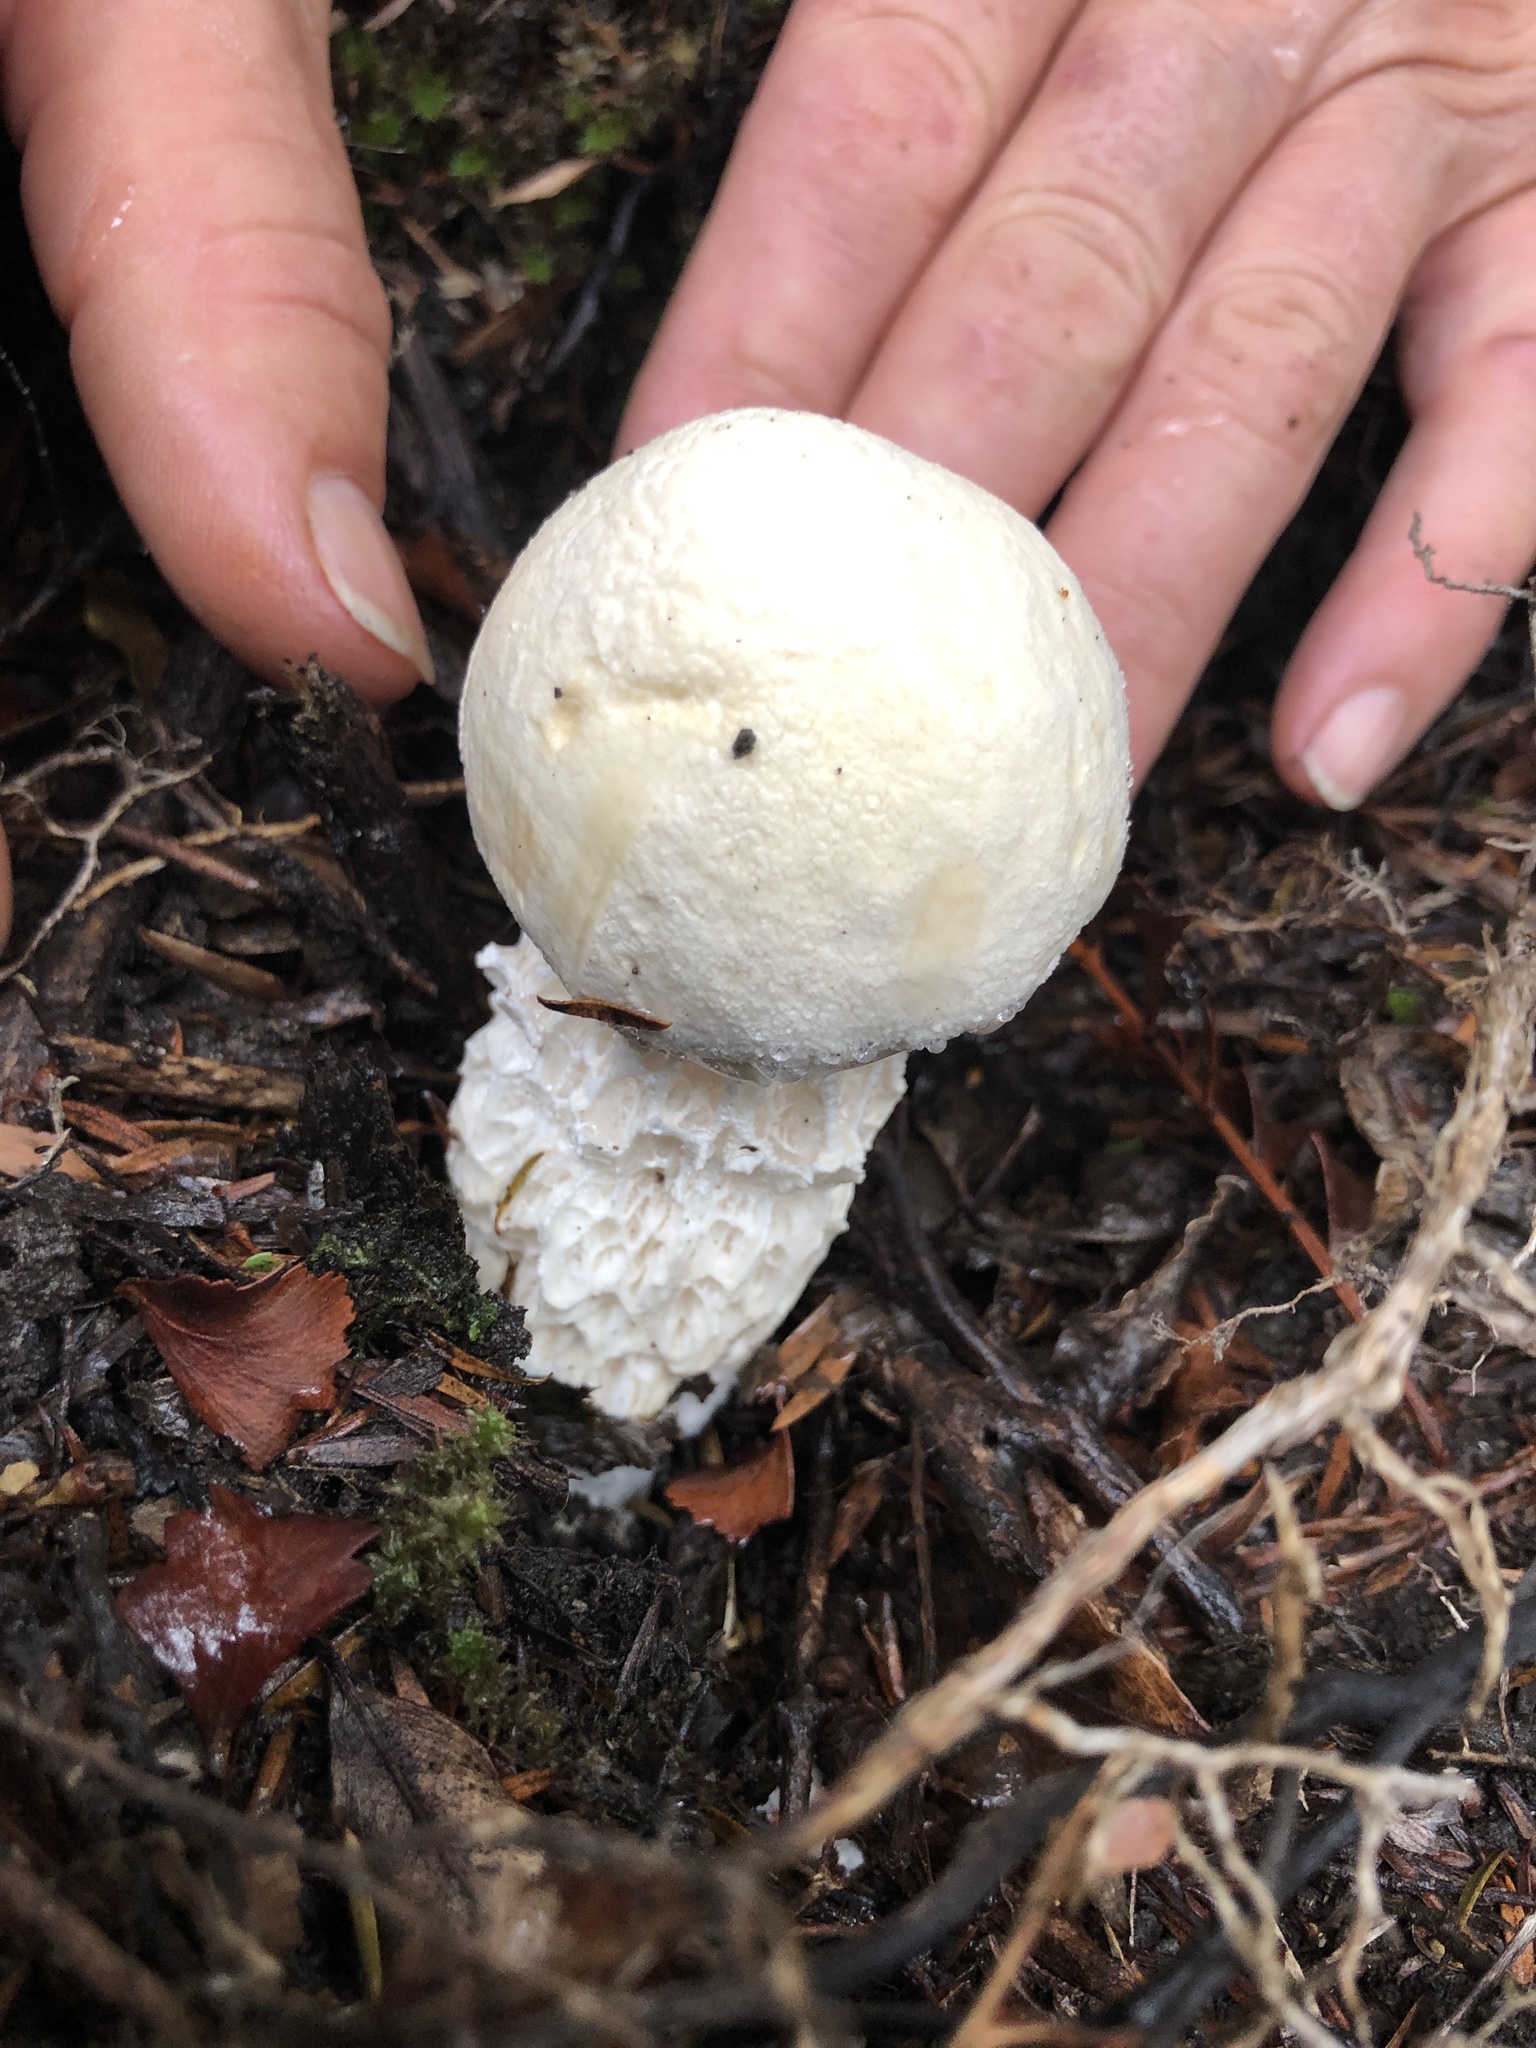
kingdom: Fungi
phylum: Basidiomycota
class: Agaricomycetes
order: Boletales
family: Boletaceae
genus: Fistulinella
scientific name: Fistulinella nivea
